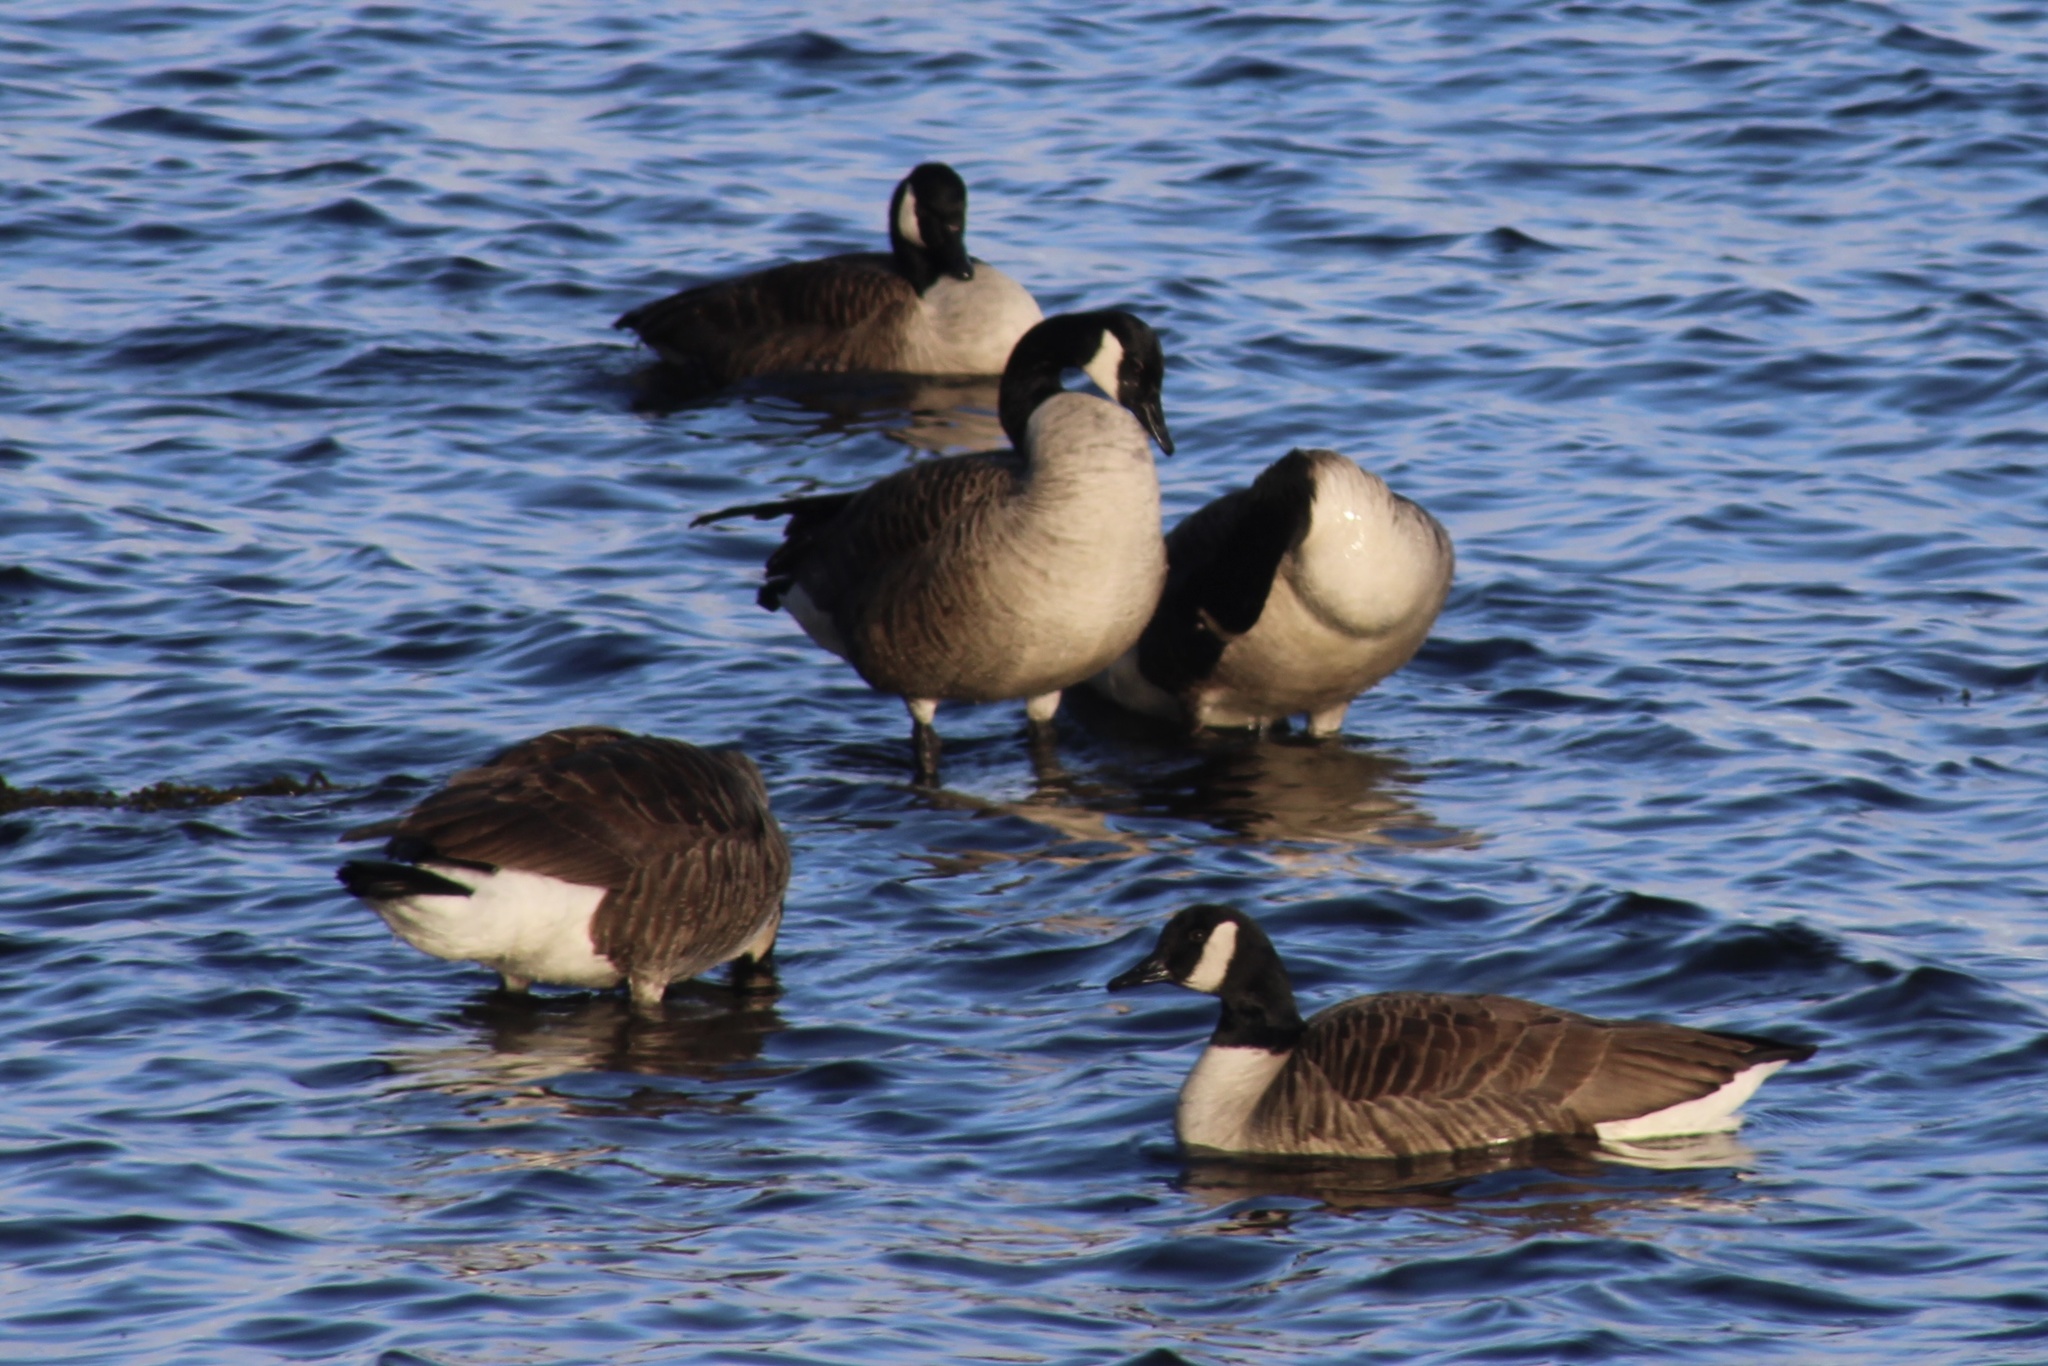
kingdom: Animalia
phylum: Chordata
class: Aves
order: Anseriformes
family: Anatidae
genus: Branta
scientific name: Branta canadensis
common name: Canada goose
